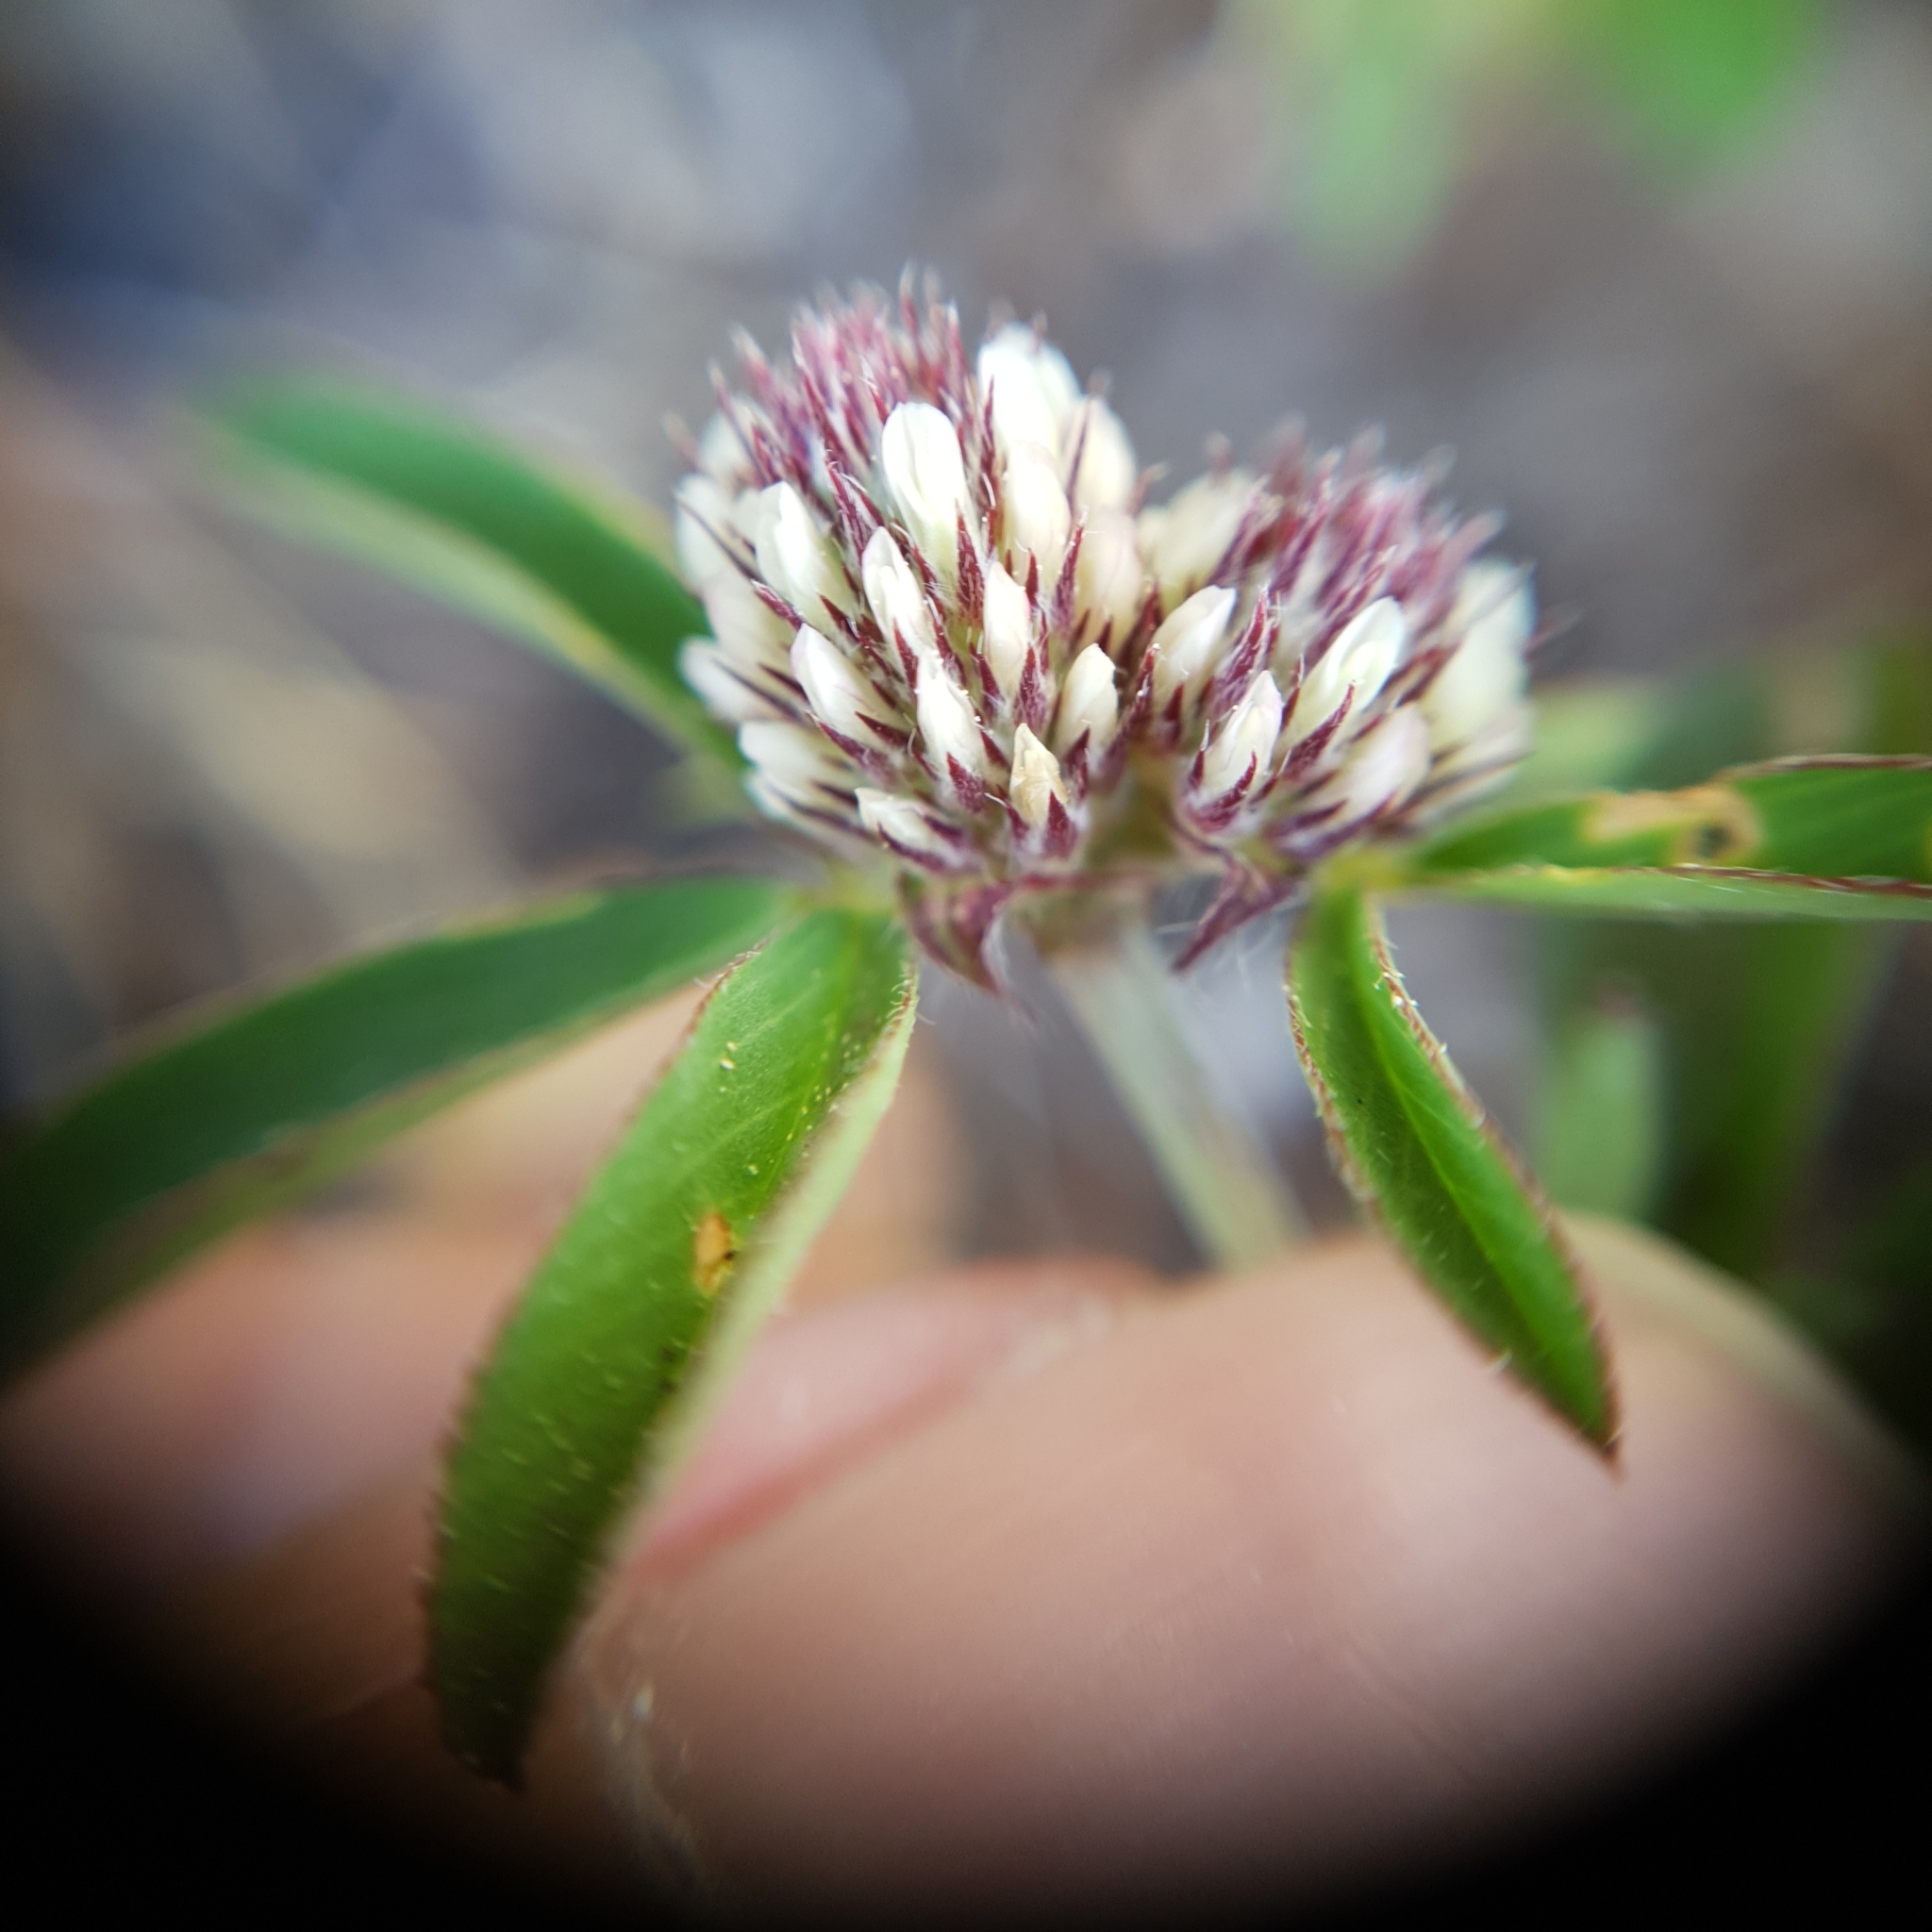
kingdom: Plantae
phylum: Tracheophyta
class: Magnoliopsida
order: Fabales
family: Fabaceae
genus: Trifolium
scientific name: Trifolium bocconei
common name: Twin-headed clover
